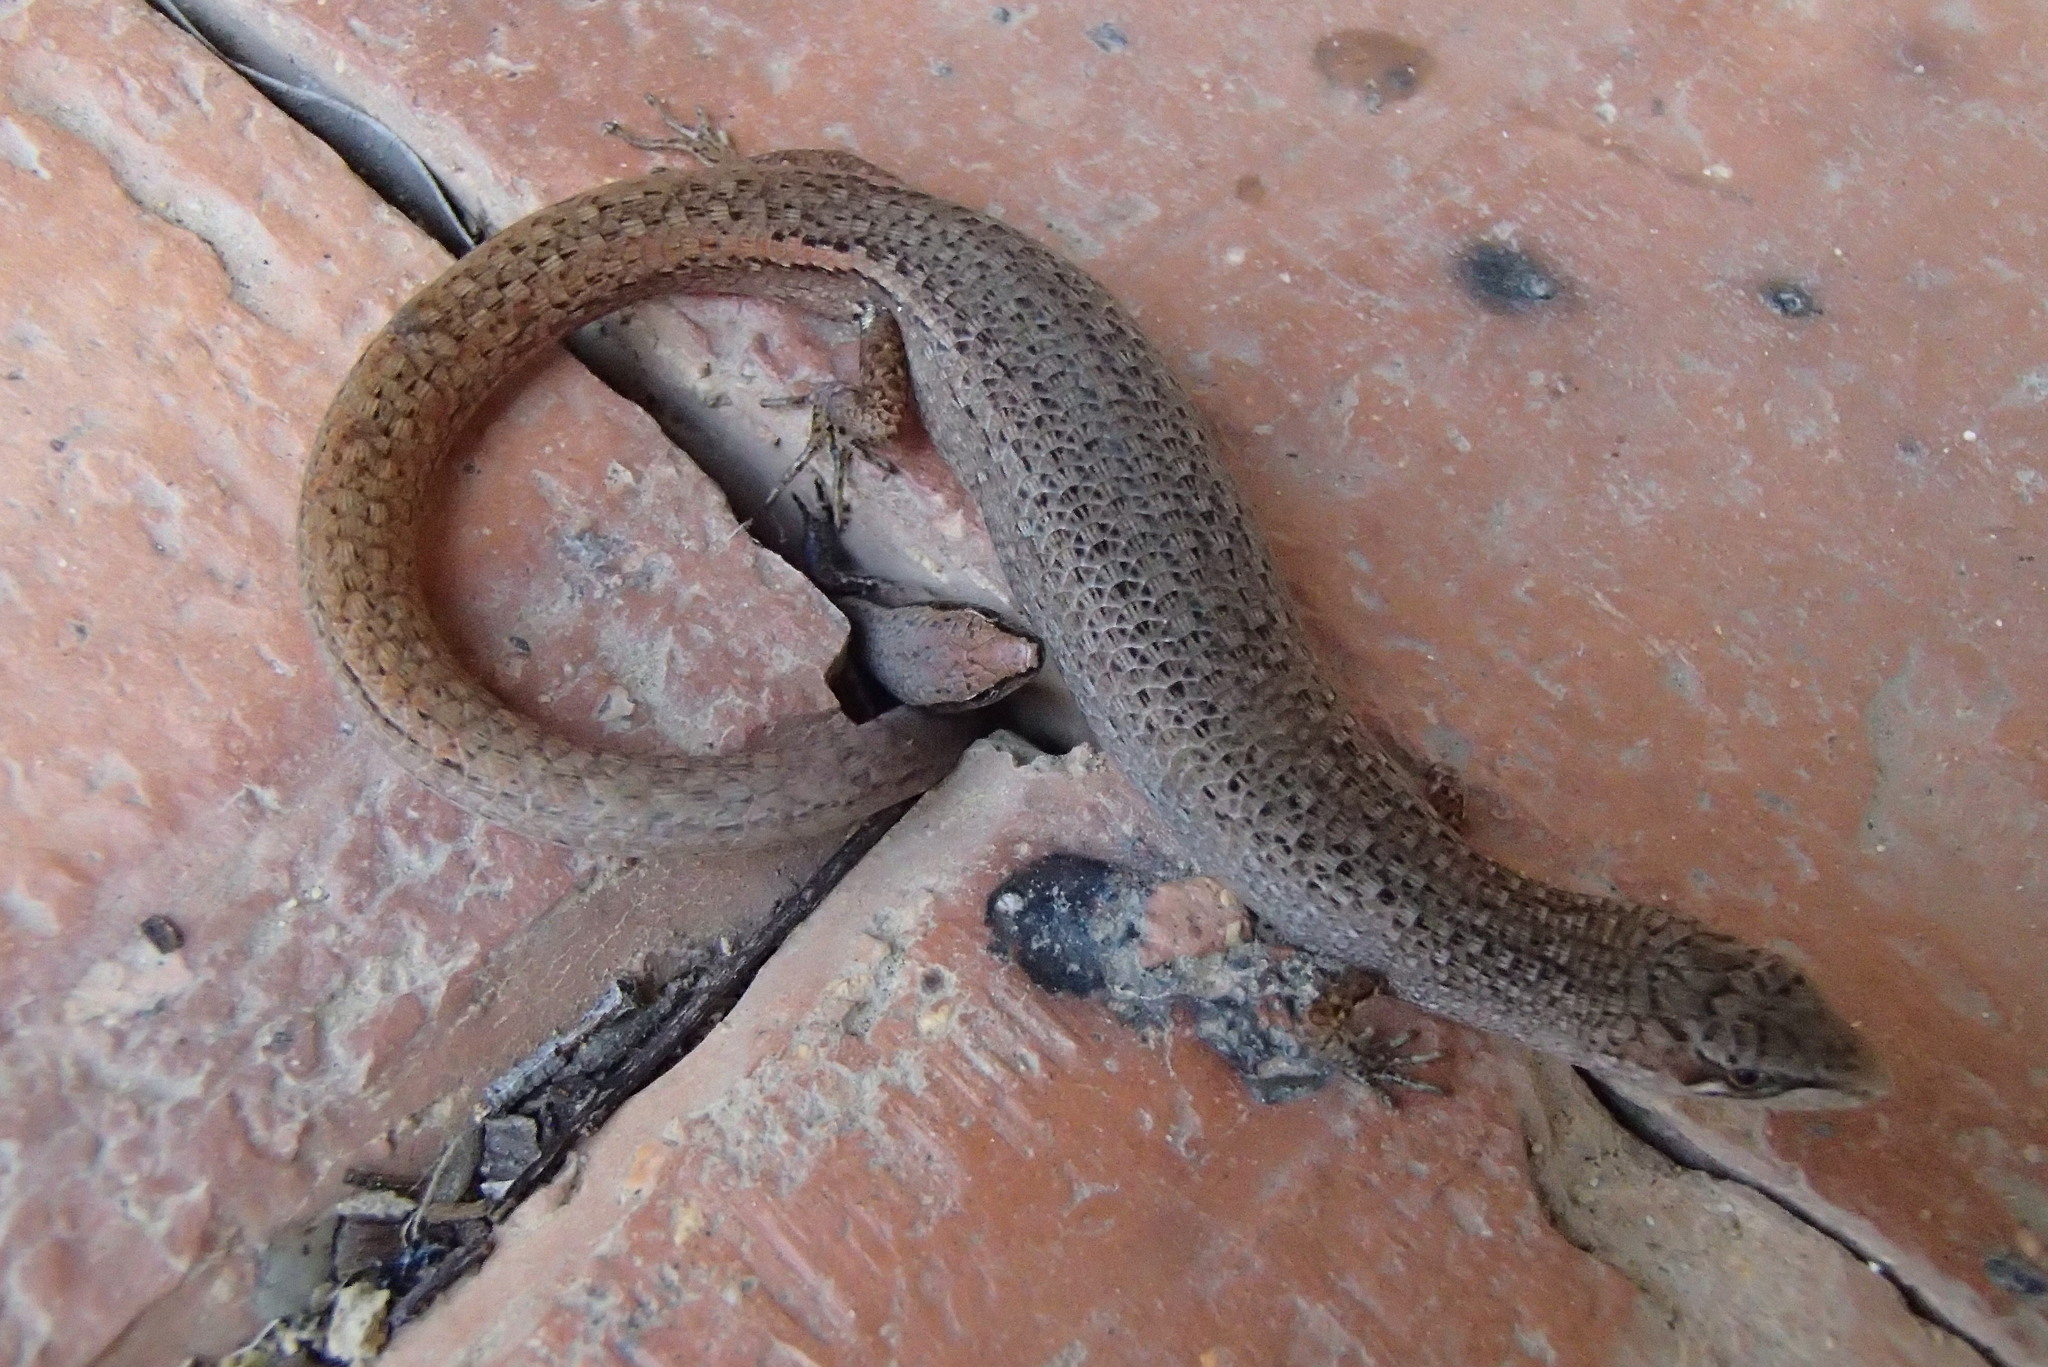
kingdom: Animalia
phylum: Chordata
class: Squamata
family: Scincidae
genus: Saproscincus
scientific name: Saproscincus mustelinus
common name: Southern weasel skink
